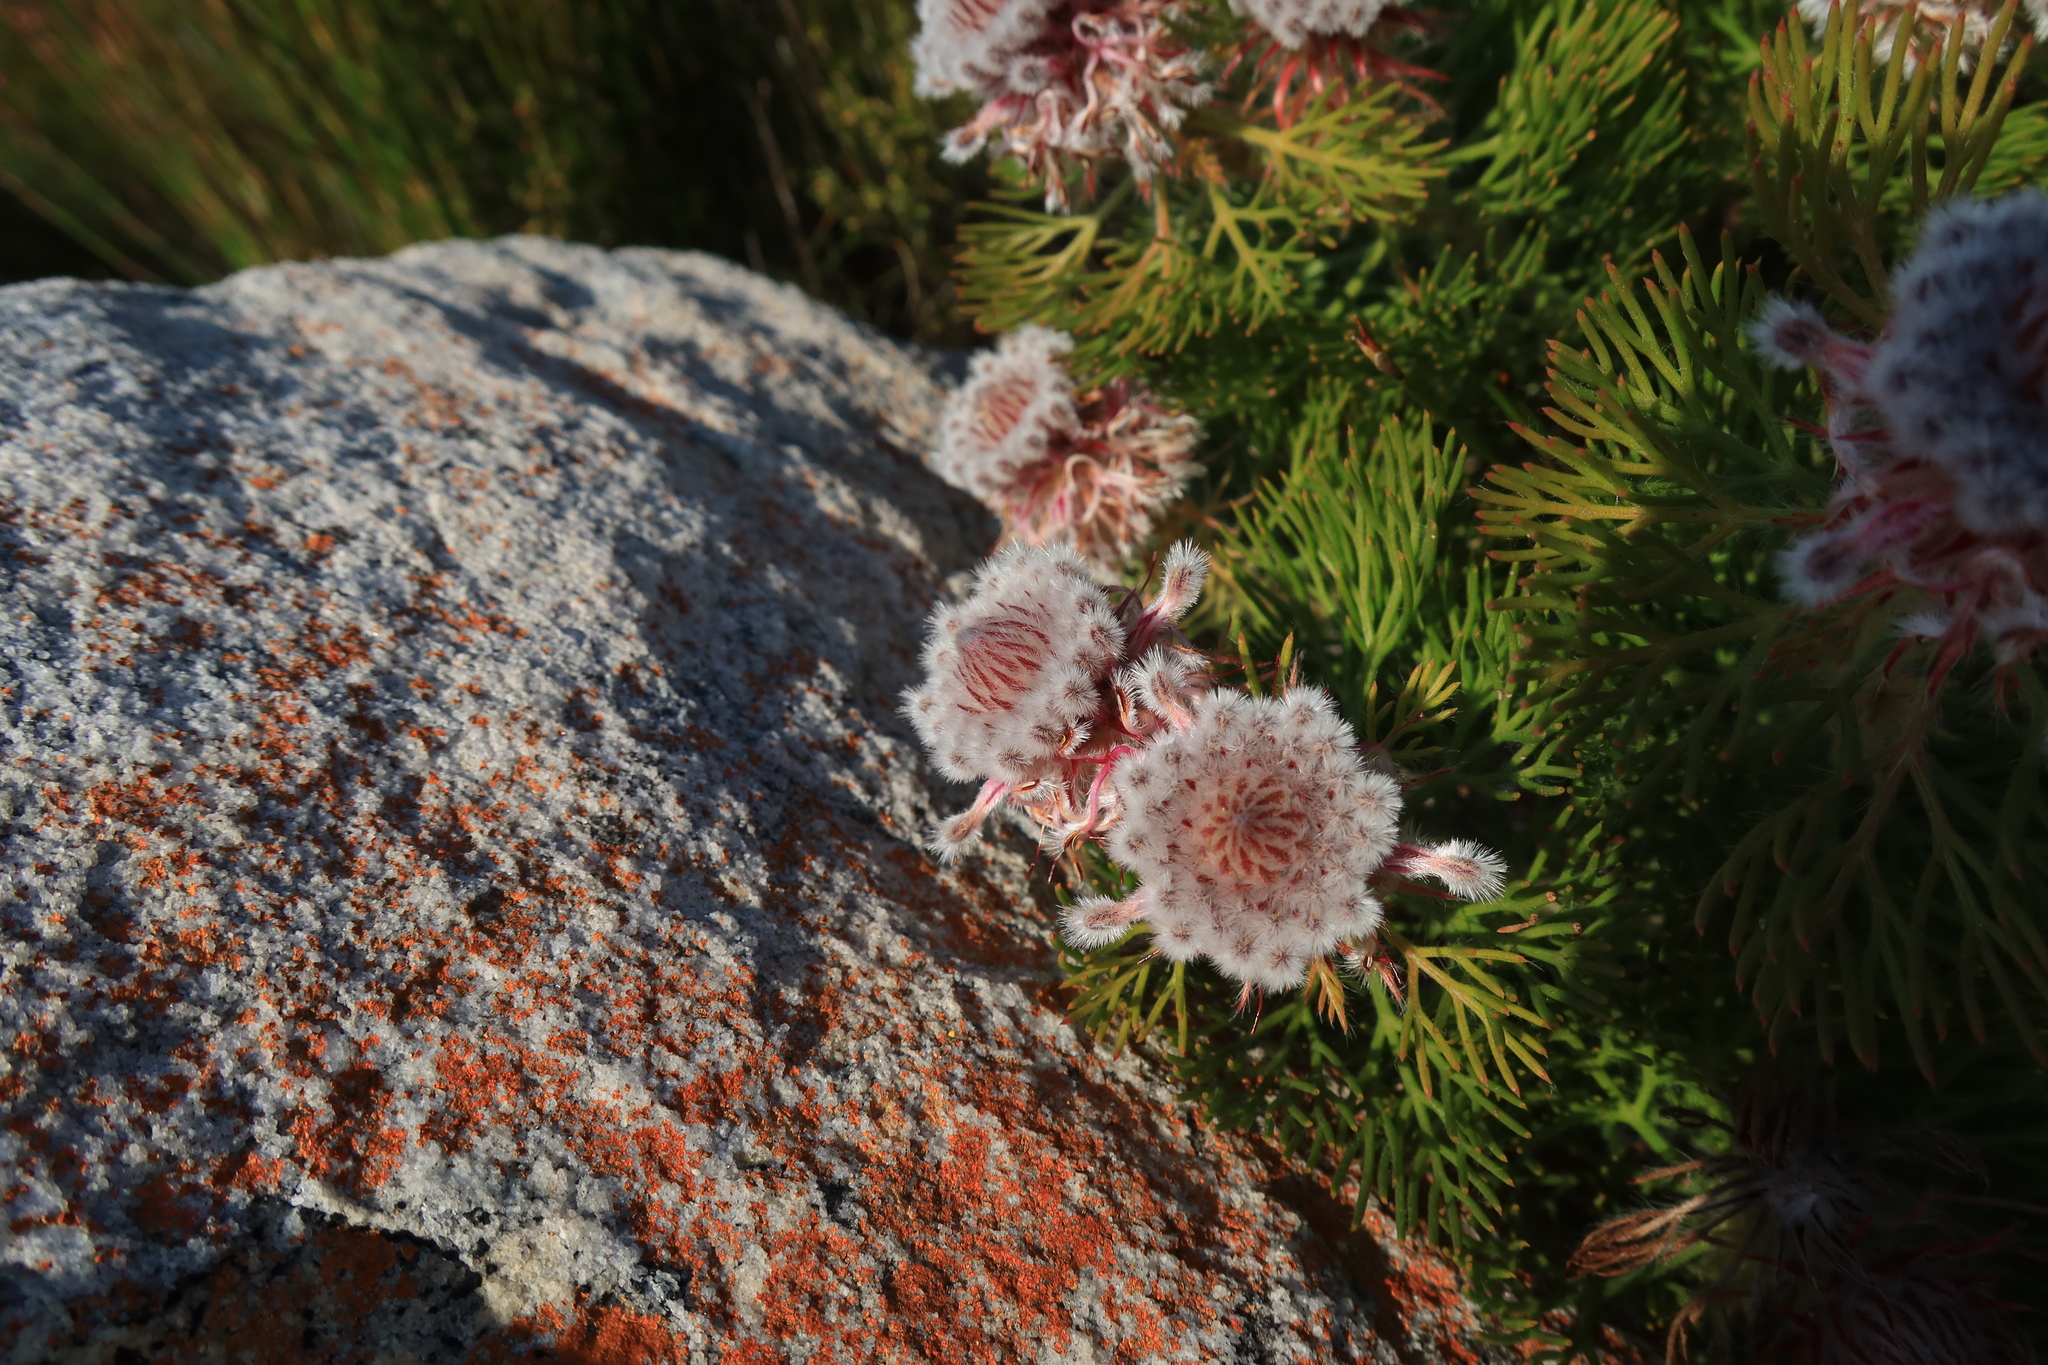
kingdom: Plantae
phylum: Tracheophyta
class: Magnoliopsida
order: Proteales
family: Proteaceae
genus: Serruria
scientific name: Serruria hirsuta
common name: Swartkops spiderhead
